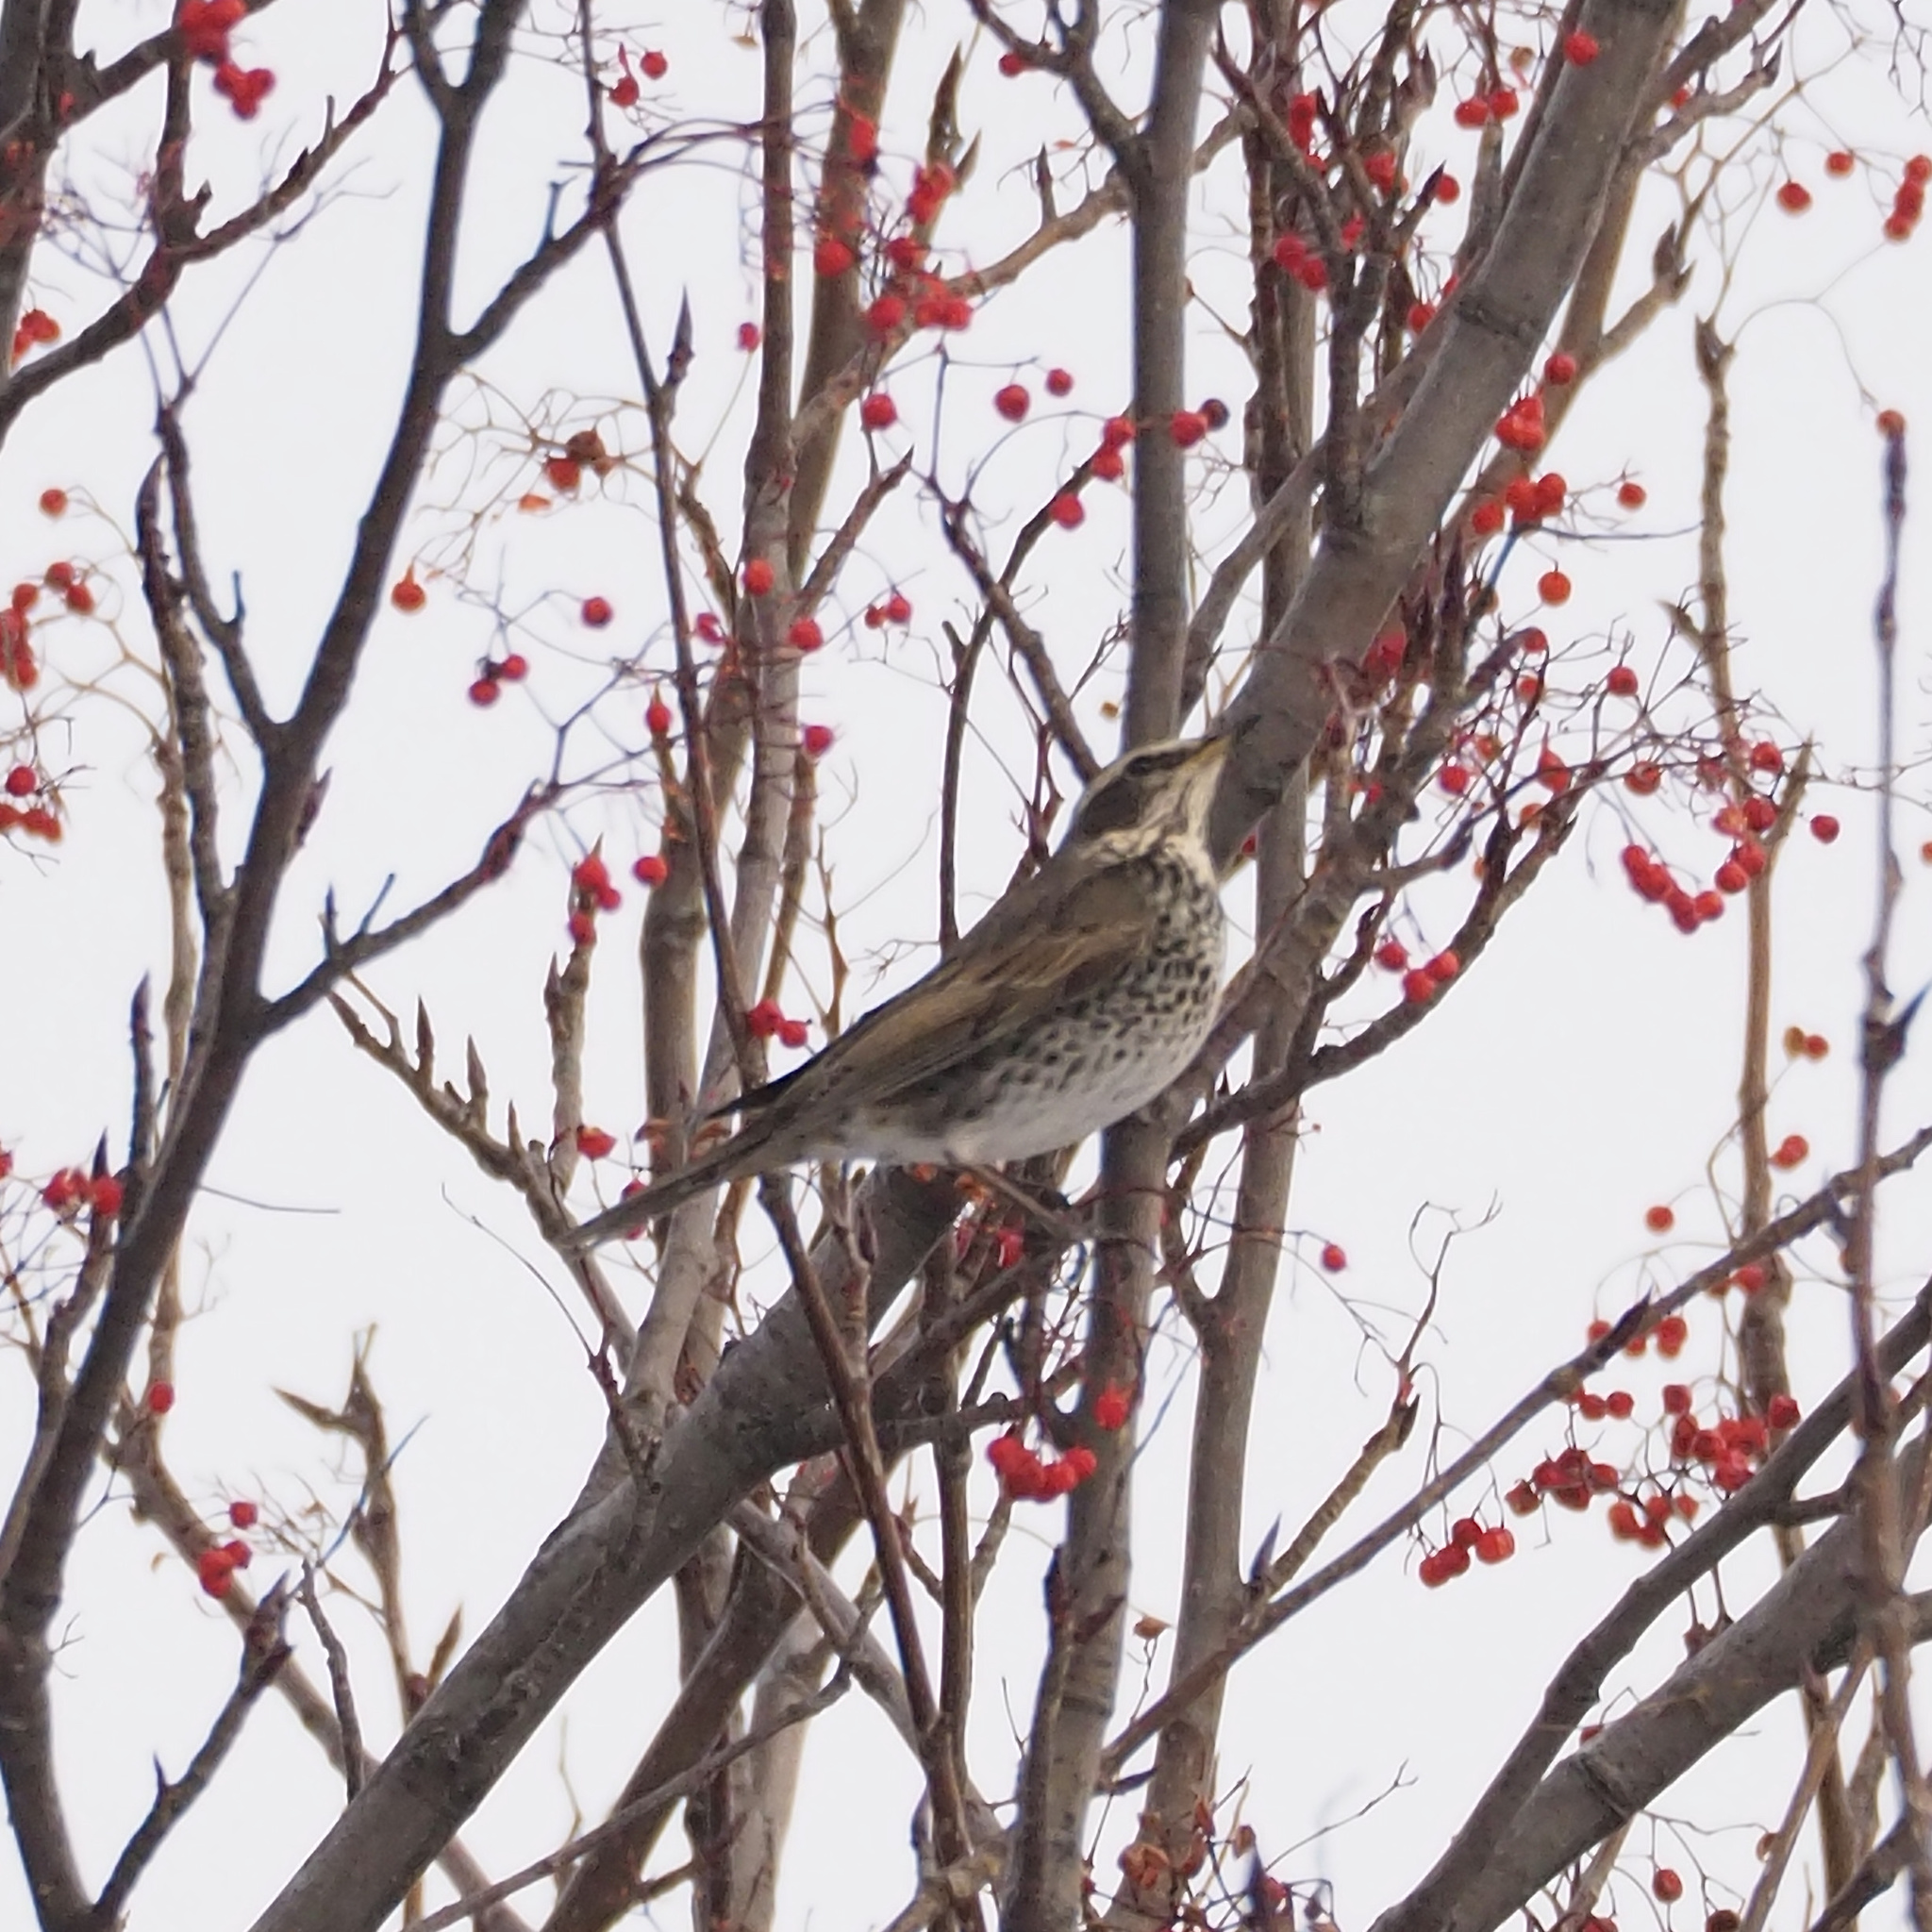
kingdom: Animalia
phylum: Chordata
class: Aves
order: Passeriformes
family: Turdidae
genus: Turdus
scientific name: Turdus eunomus
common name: Dusky thrush
